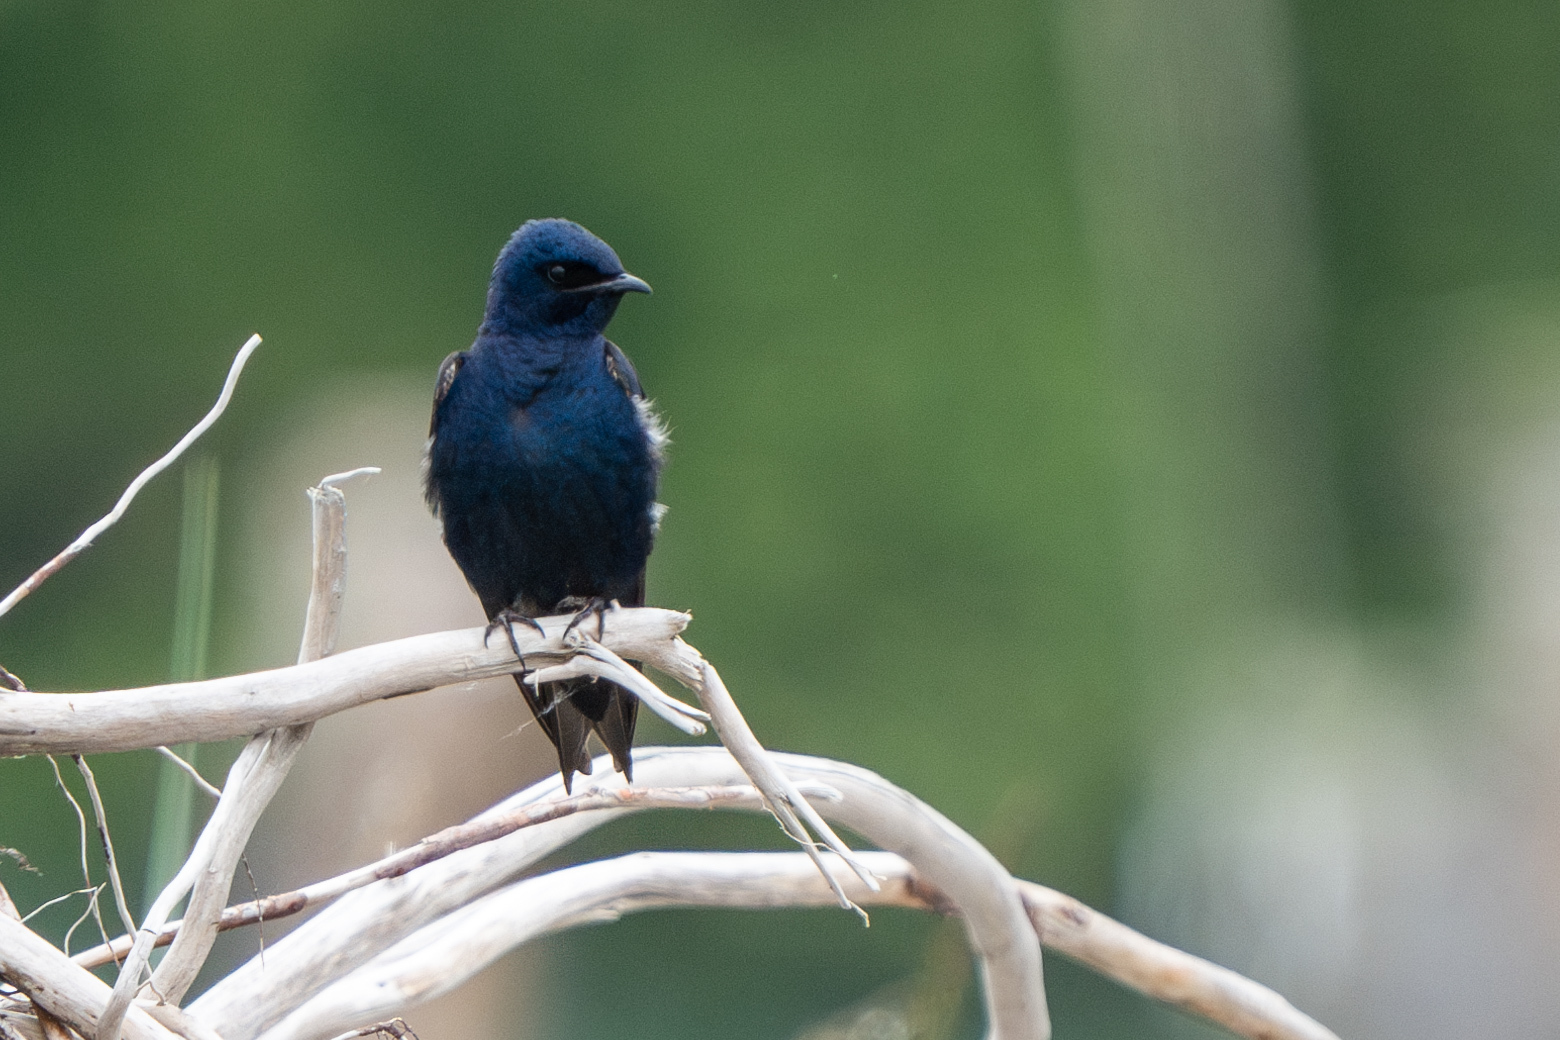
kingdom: Animalia
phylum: Chordata
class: Aves
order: Passeriformes
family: Hirundinidae
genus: Progne
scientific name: Progne subis
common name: Purple martin
